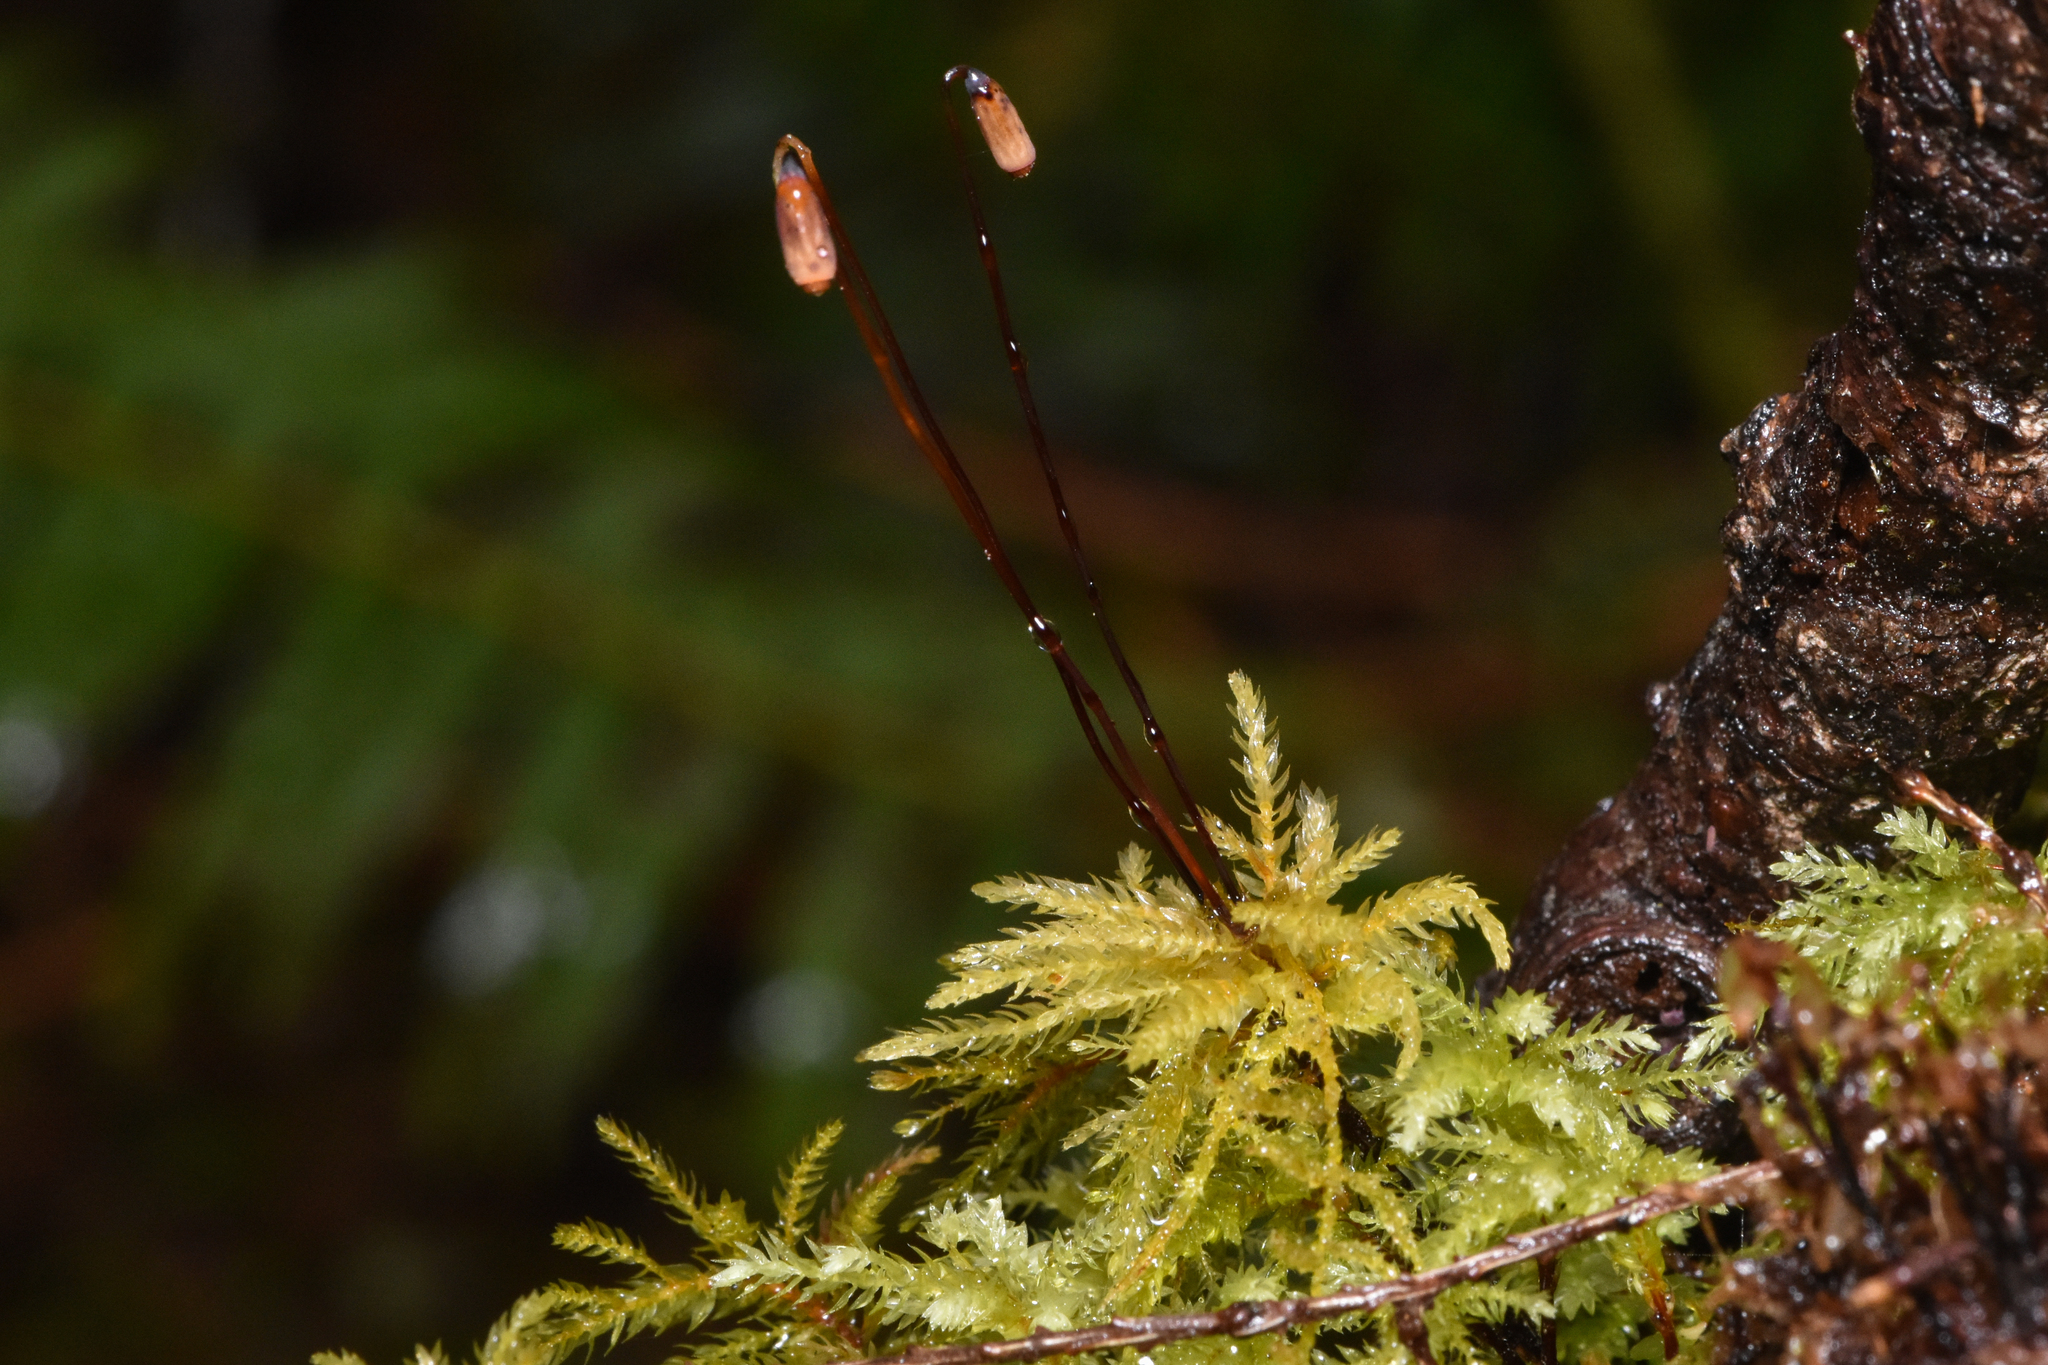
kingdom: Plantae
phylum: Bryophyta
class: Bryopsida
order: Bryales
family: Mniaceae
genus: Leucolepis
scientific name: Leucolepis acanthoneura
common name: Leucolepis umbrella moss
